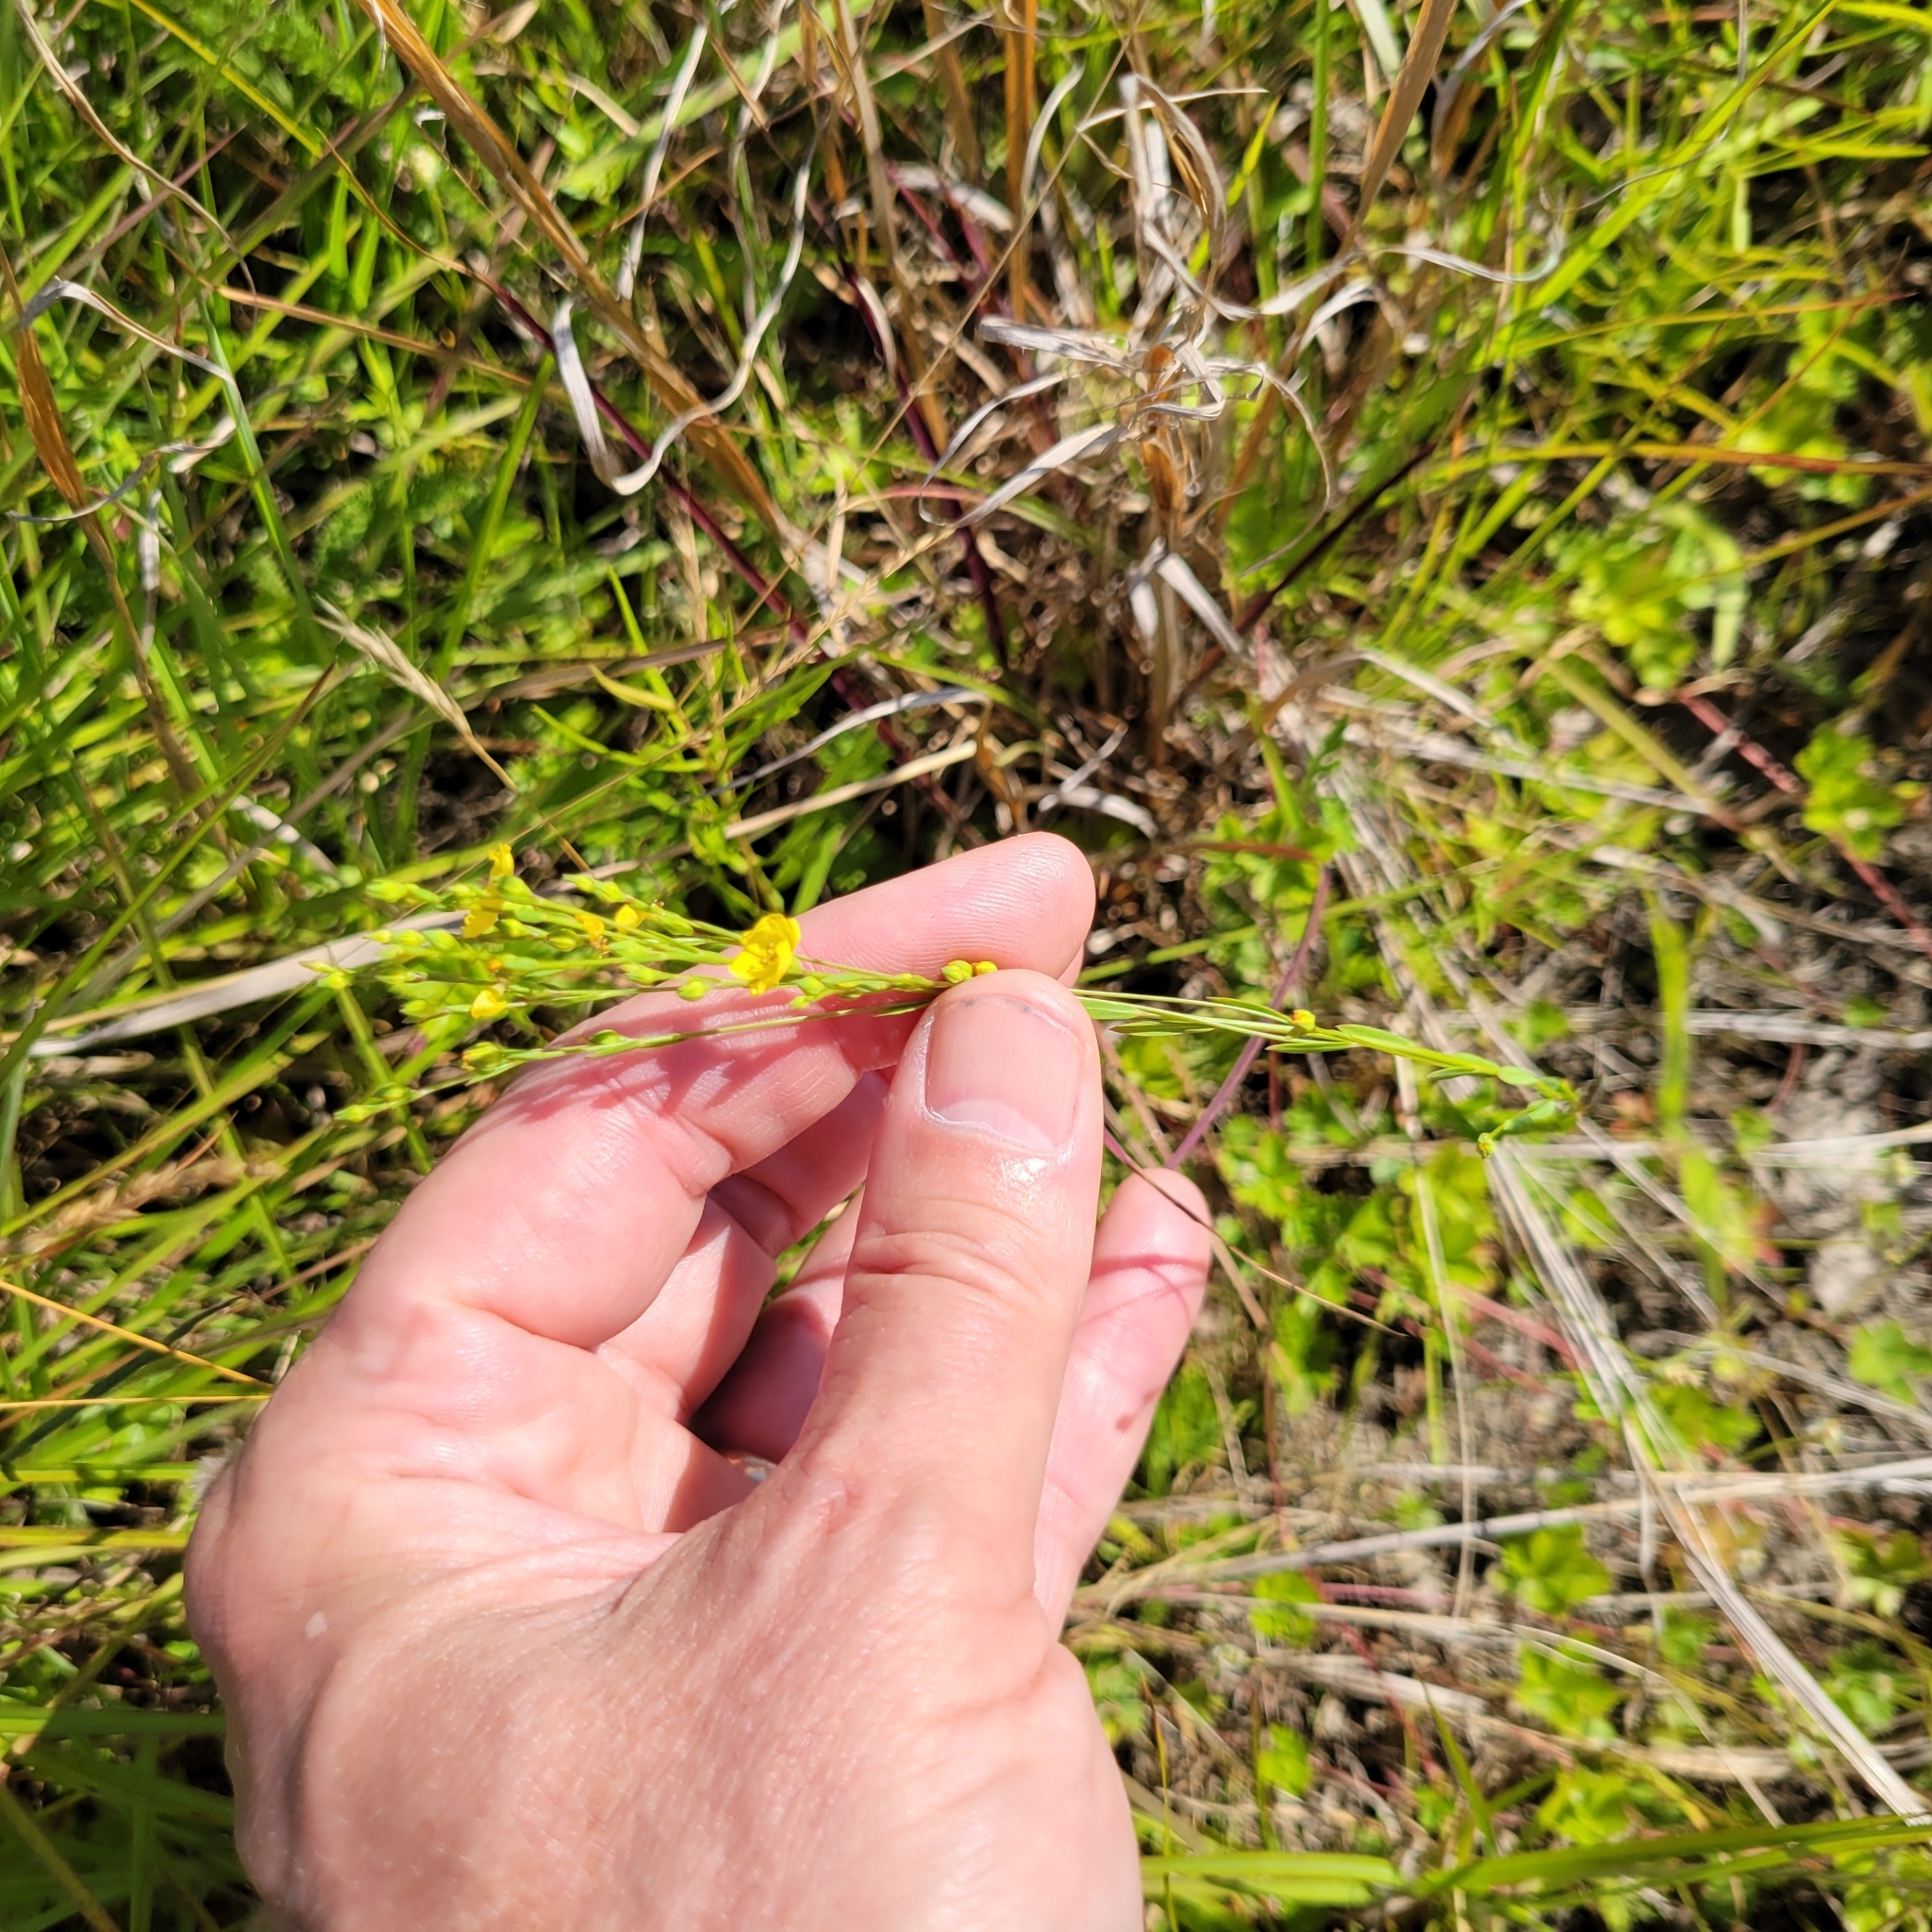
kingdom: Plantae
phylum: Tracheophyta
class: Magnoliopsida
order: Malpighiales
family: Linaceae
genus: Linum
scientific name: Linum intercursum
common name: Sandplain flax
